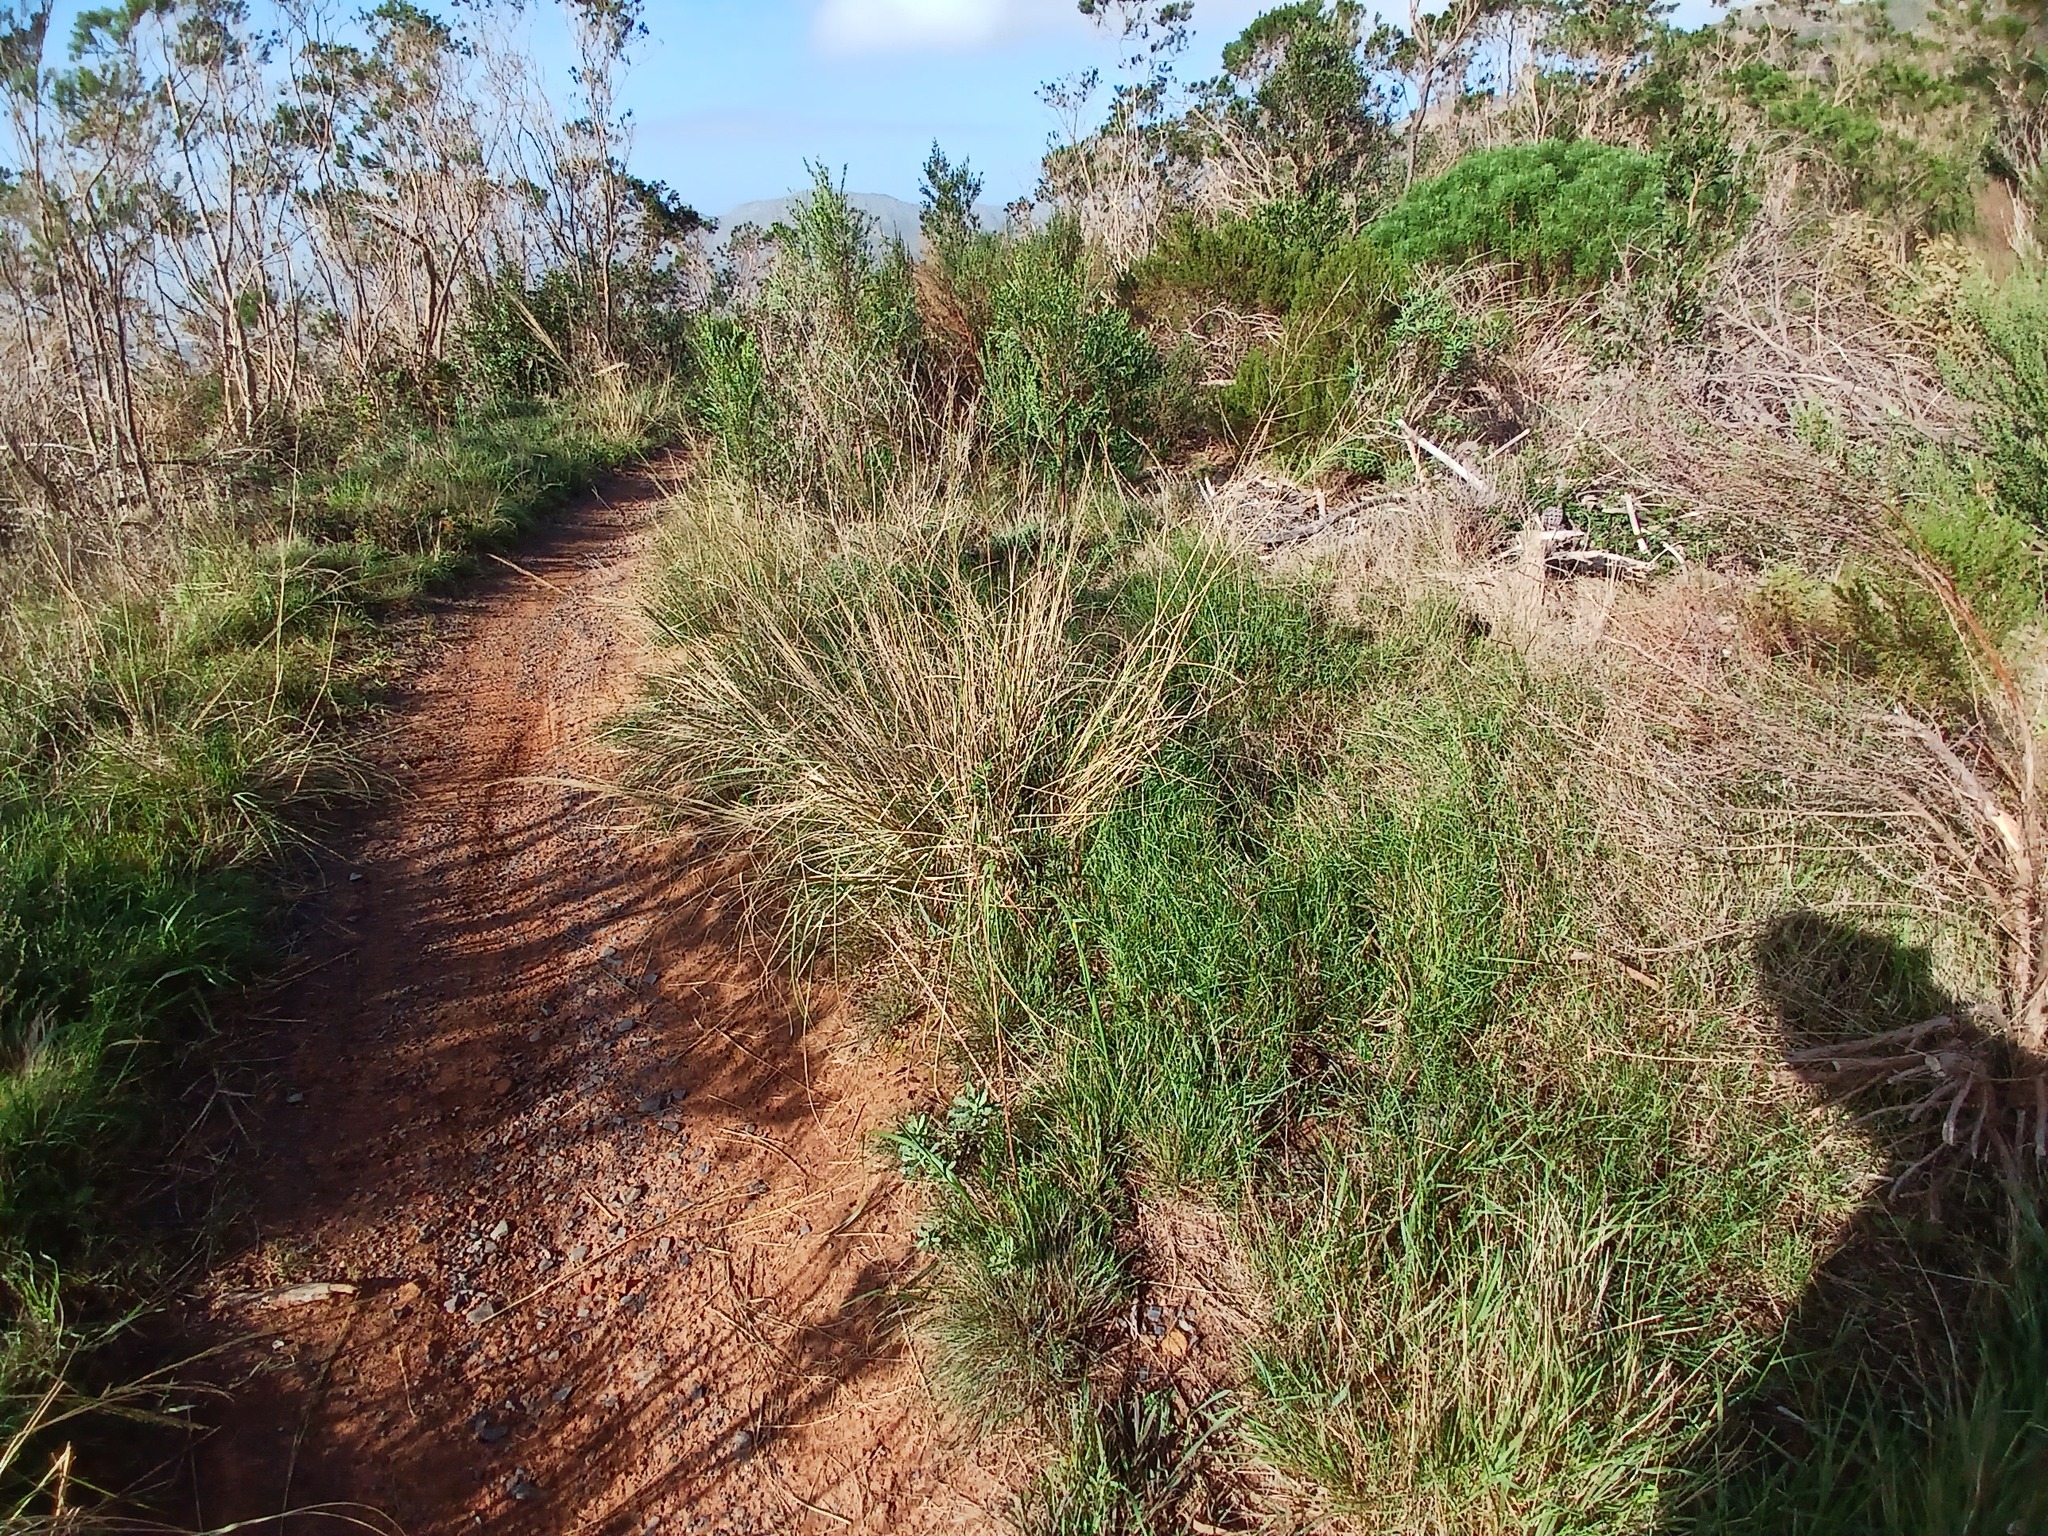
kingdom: Plantae
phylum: Tracheophyta
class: Magnoliopsida
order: Fabales
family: Fabaceae
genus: Psoralea
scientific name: Psoralea pinnata
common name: African scurfpea
